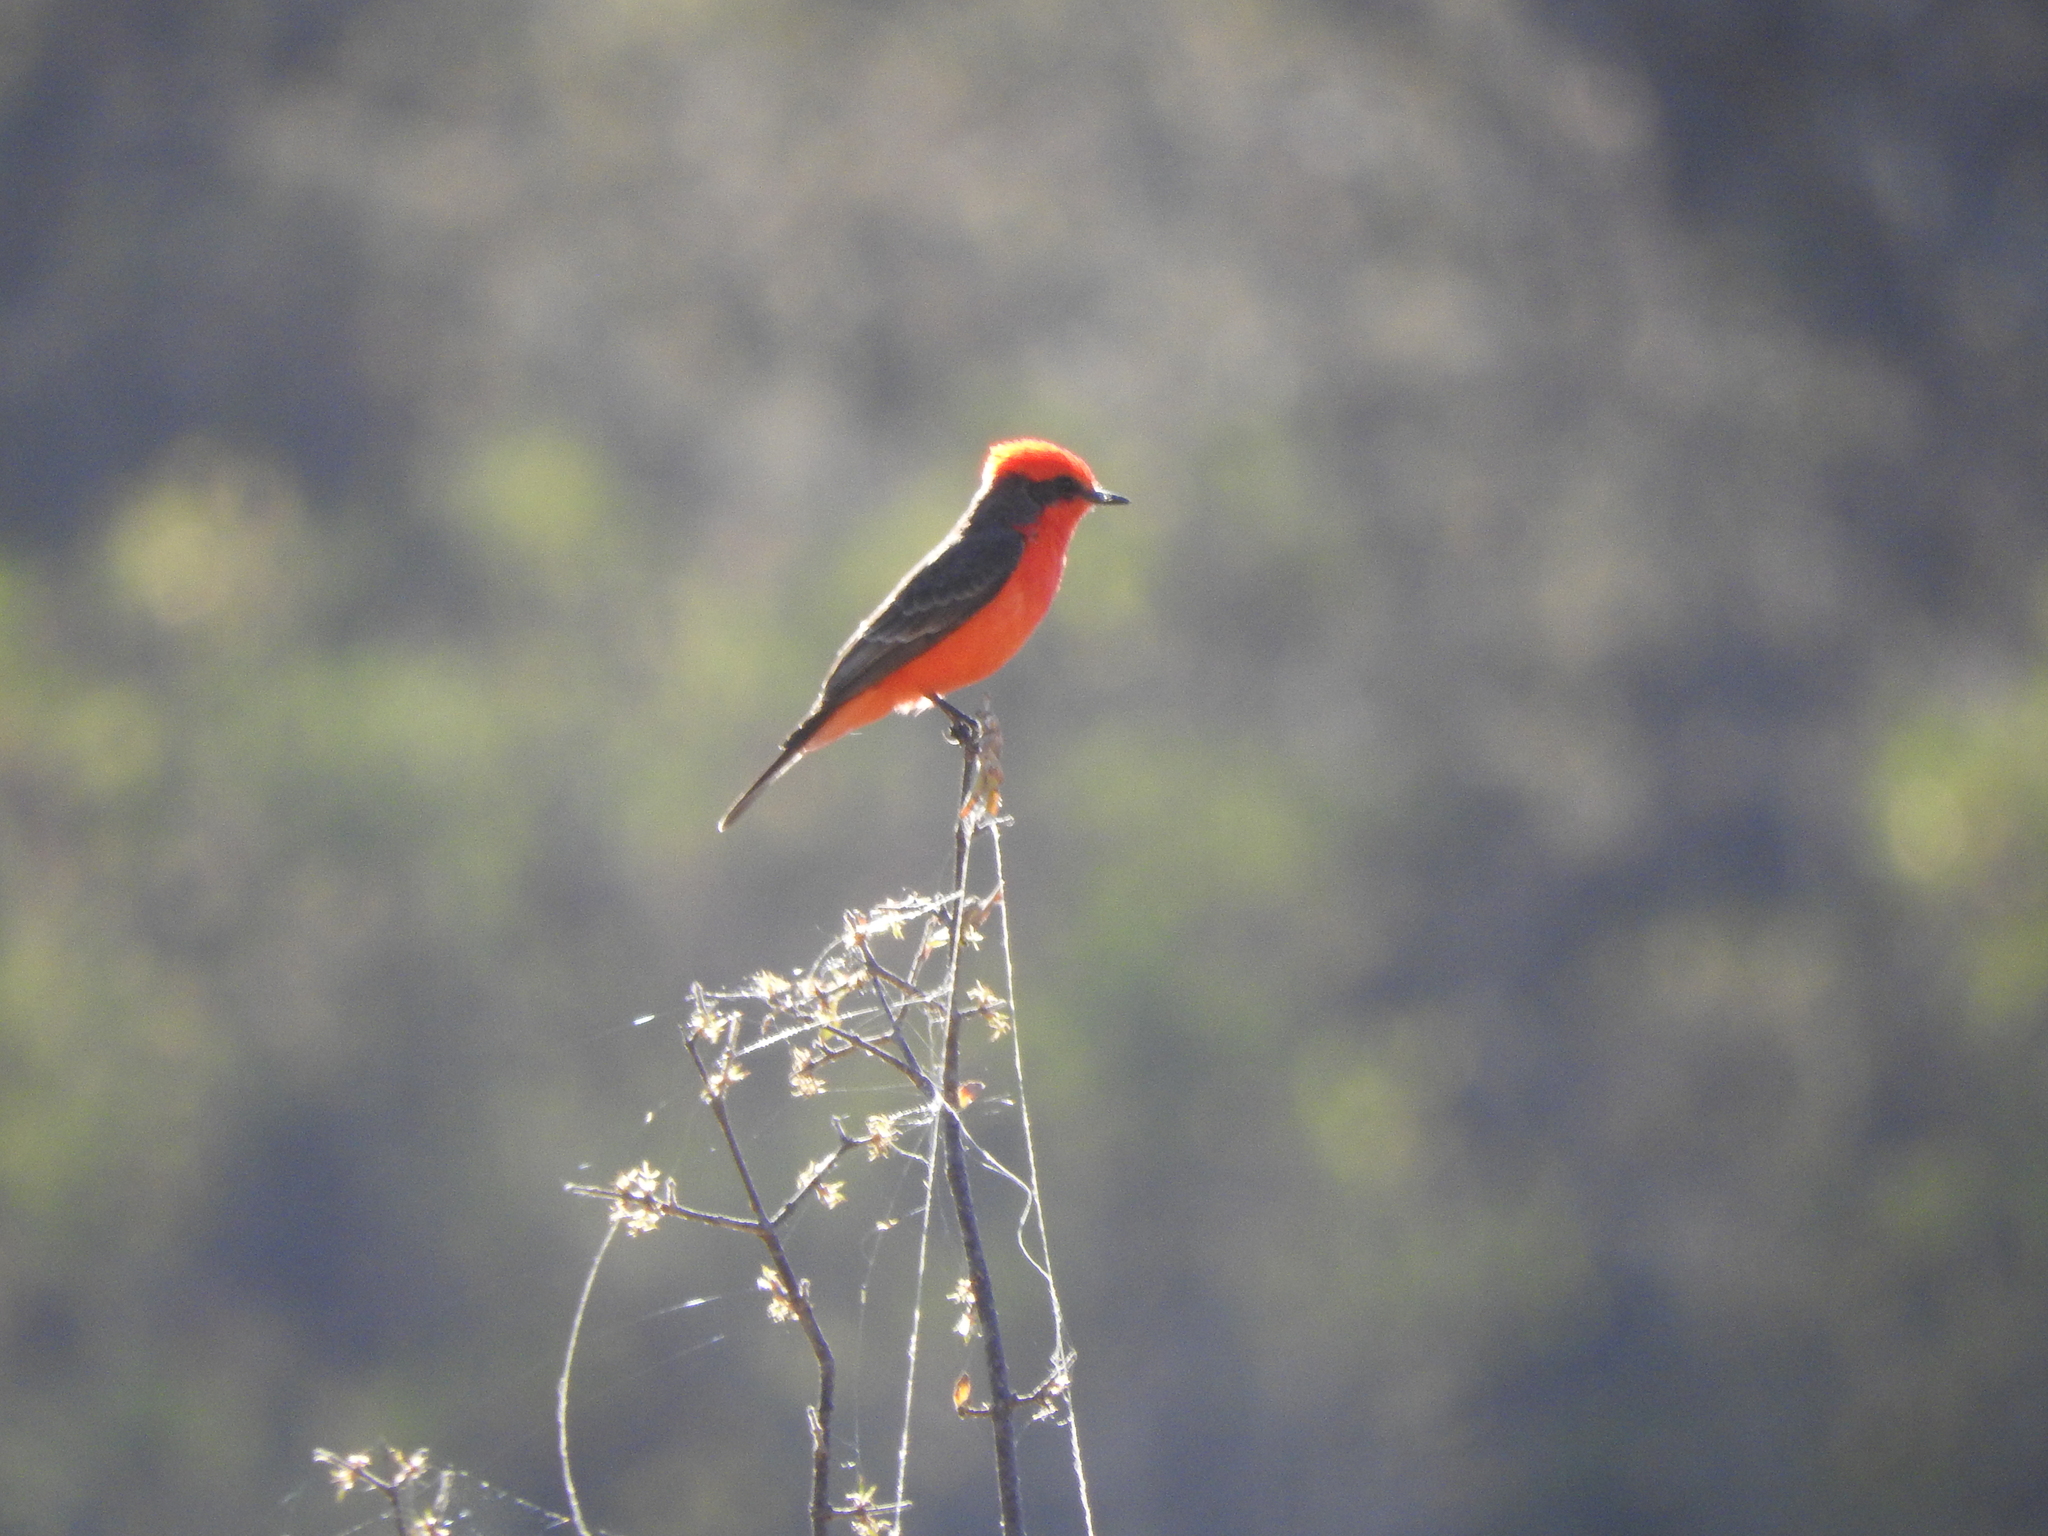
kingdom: Animalia
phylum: Chordata
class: Aves
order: Passeriformes
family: Tyrannidae
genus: Pyrocephalus
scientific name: Pyrocephalus rubinus
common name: Vermilion flycatcher
